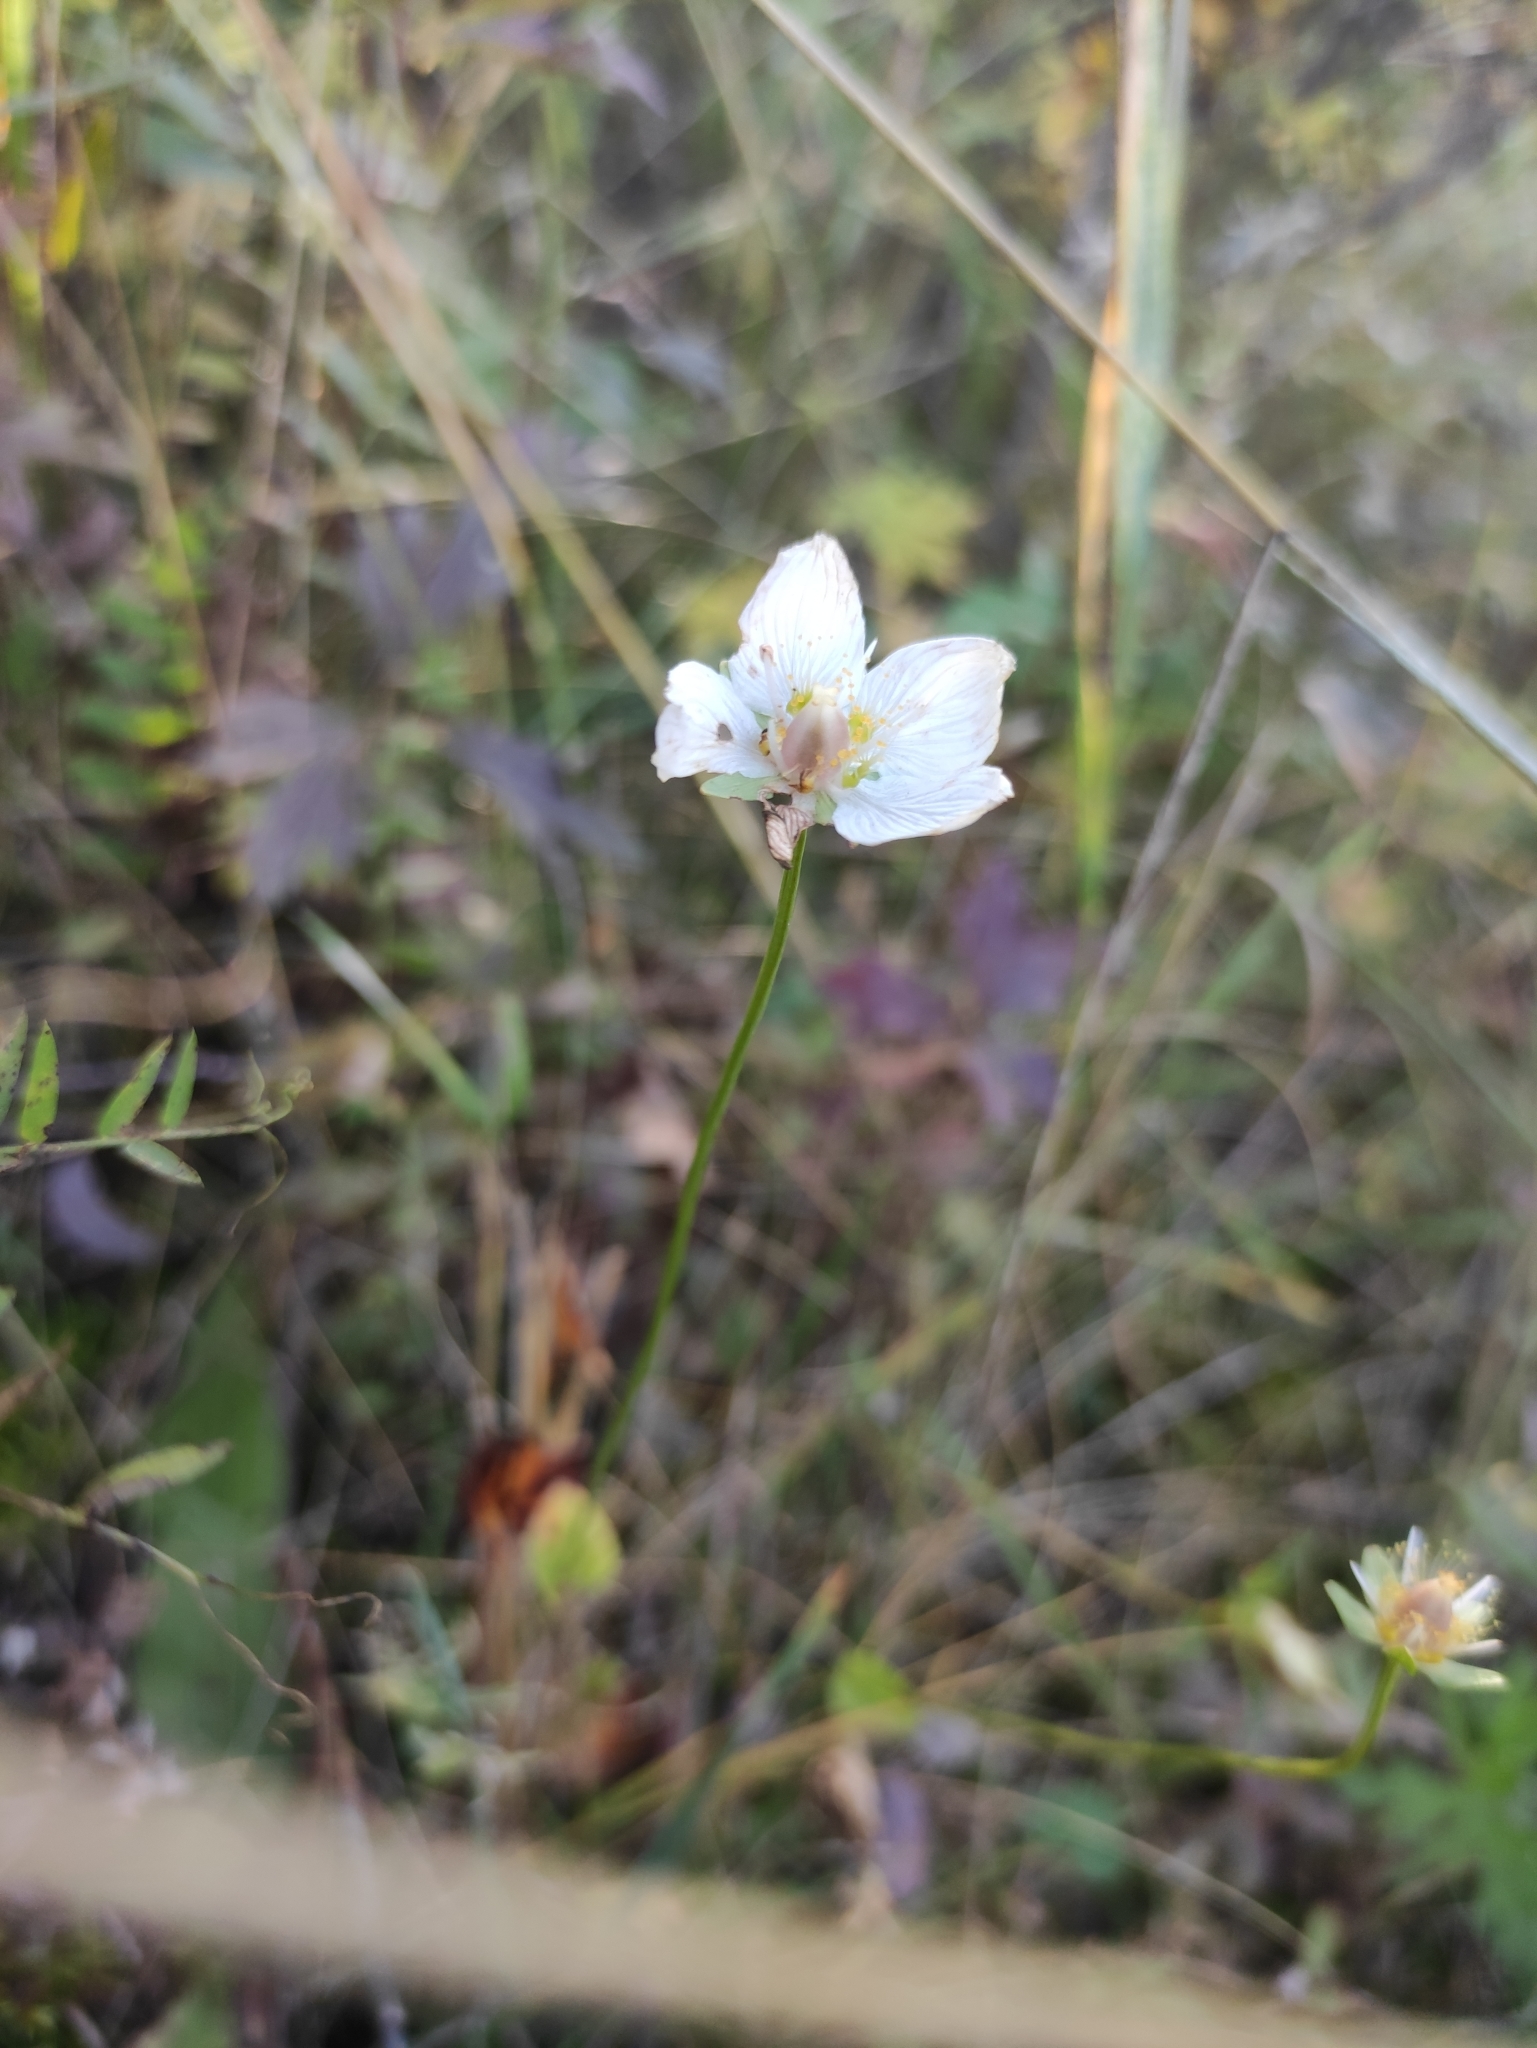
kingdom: Plantae
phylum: Tracheophyta
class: Magnoliopsida
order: Celastrales
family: Parnassiaceae
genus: Parnassia
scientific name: Parnassia palustris
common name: Grass-of-parnassus
